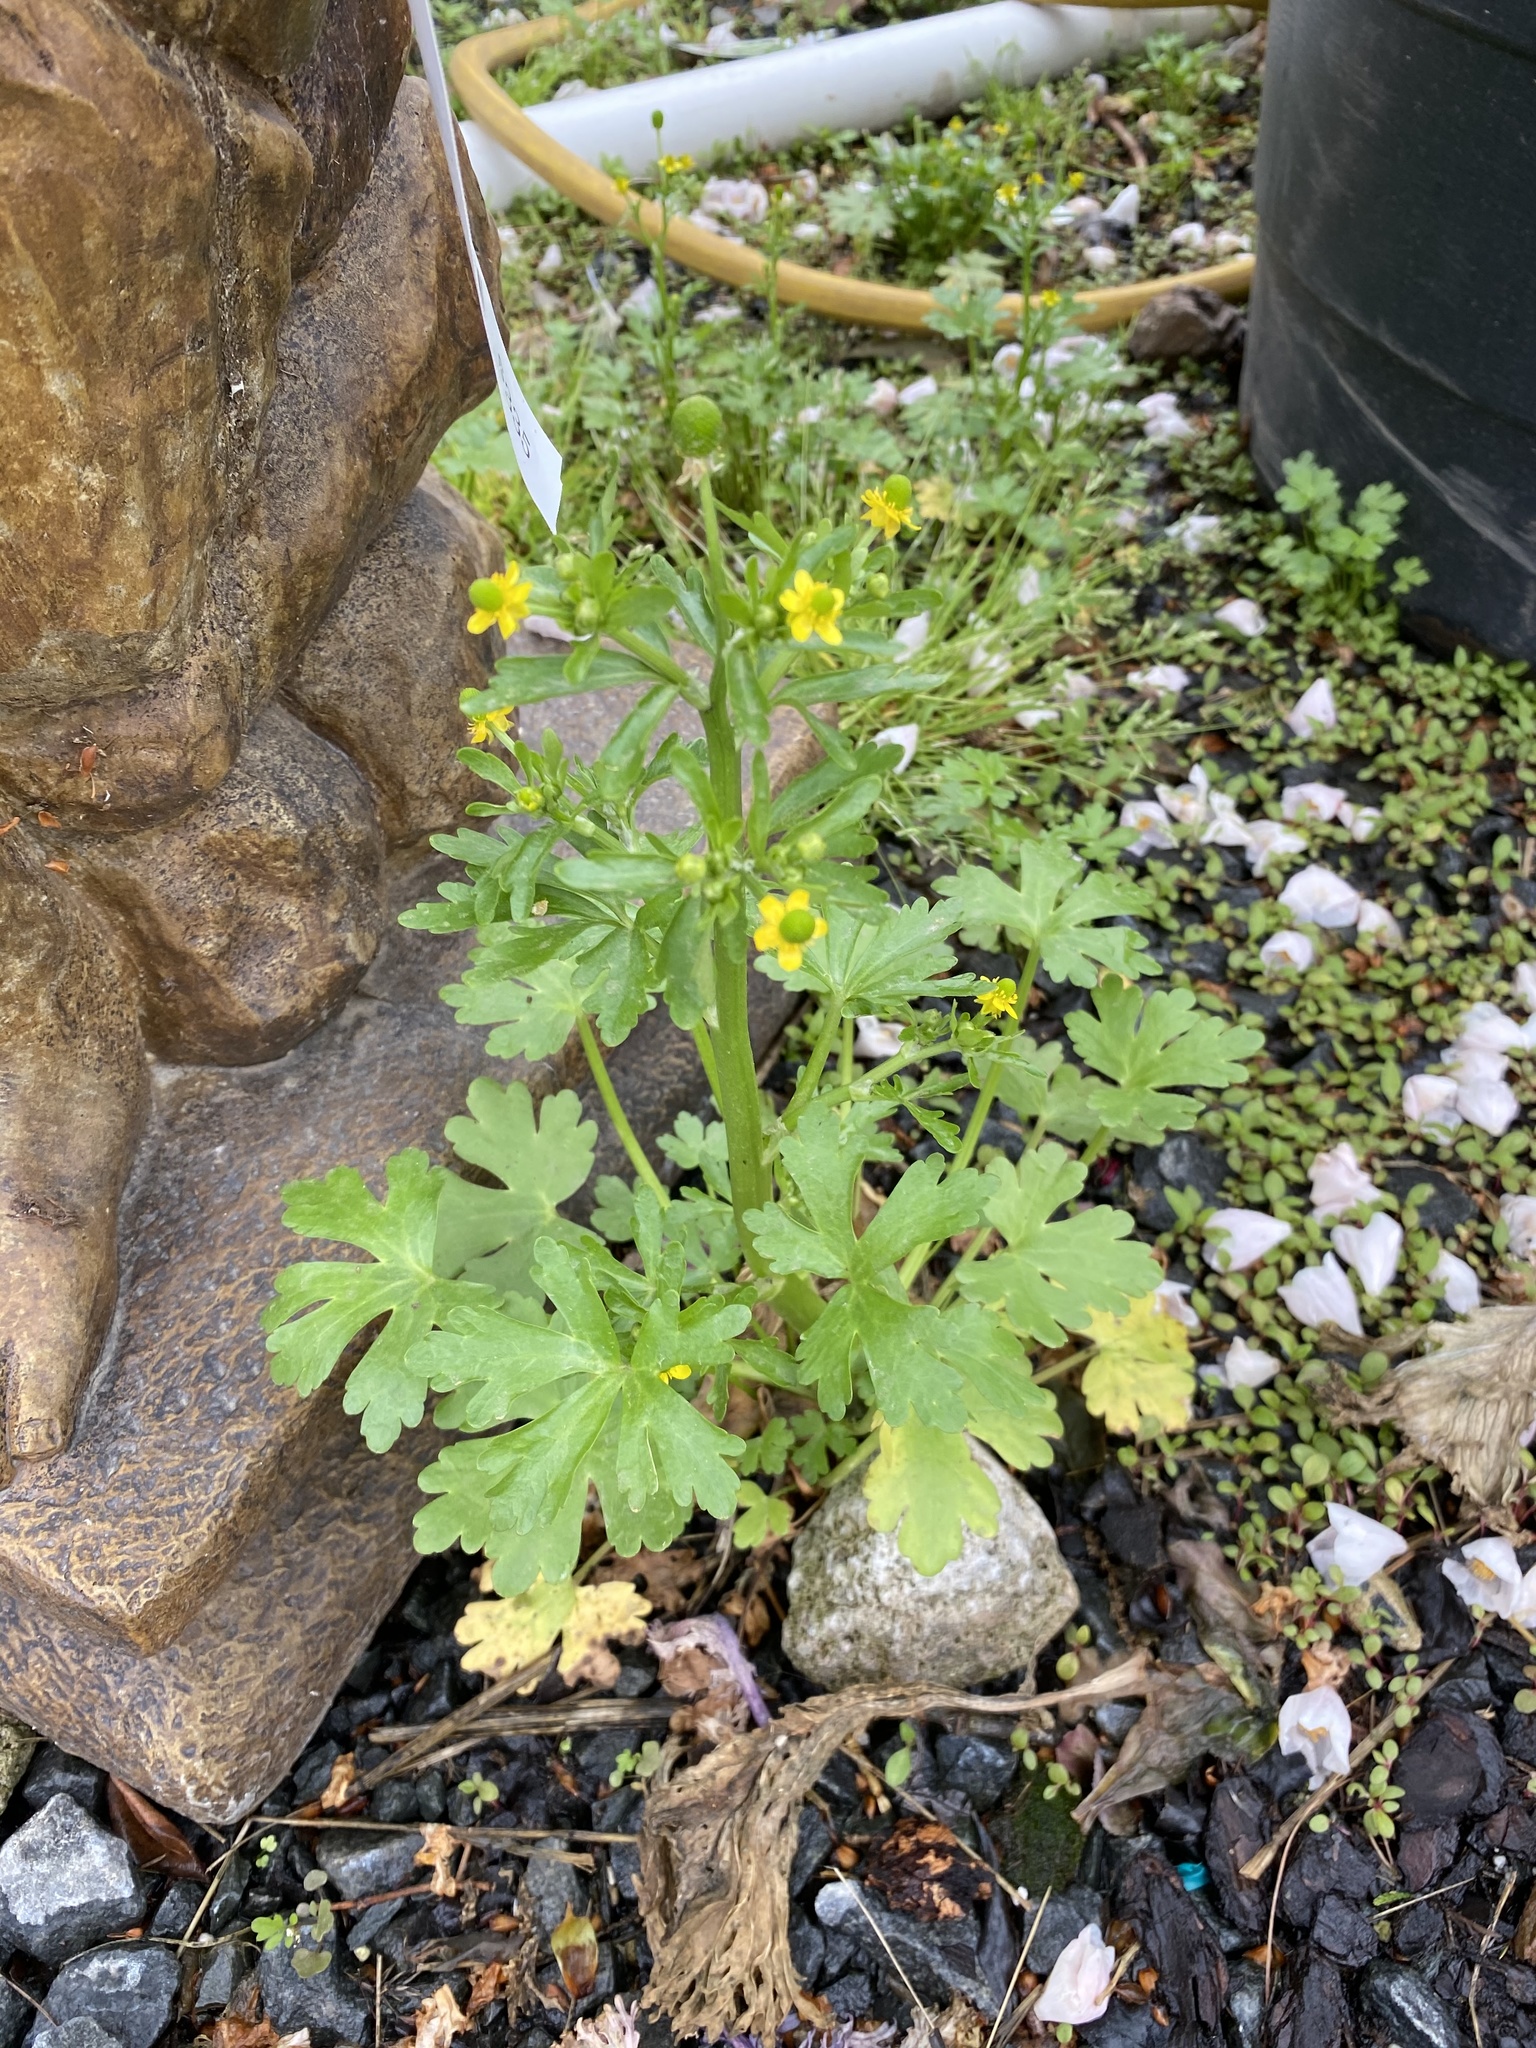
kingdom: Plantae
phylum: Tracheophyta
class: Magnoliopsida
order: Ranunculales
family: Ranunculaceae
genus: Ranunculus
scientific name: Ranunculus sceleratus
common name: Celery-leaved buttercup
